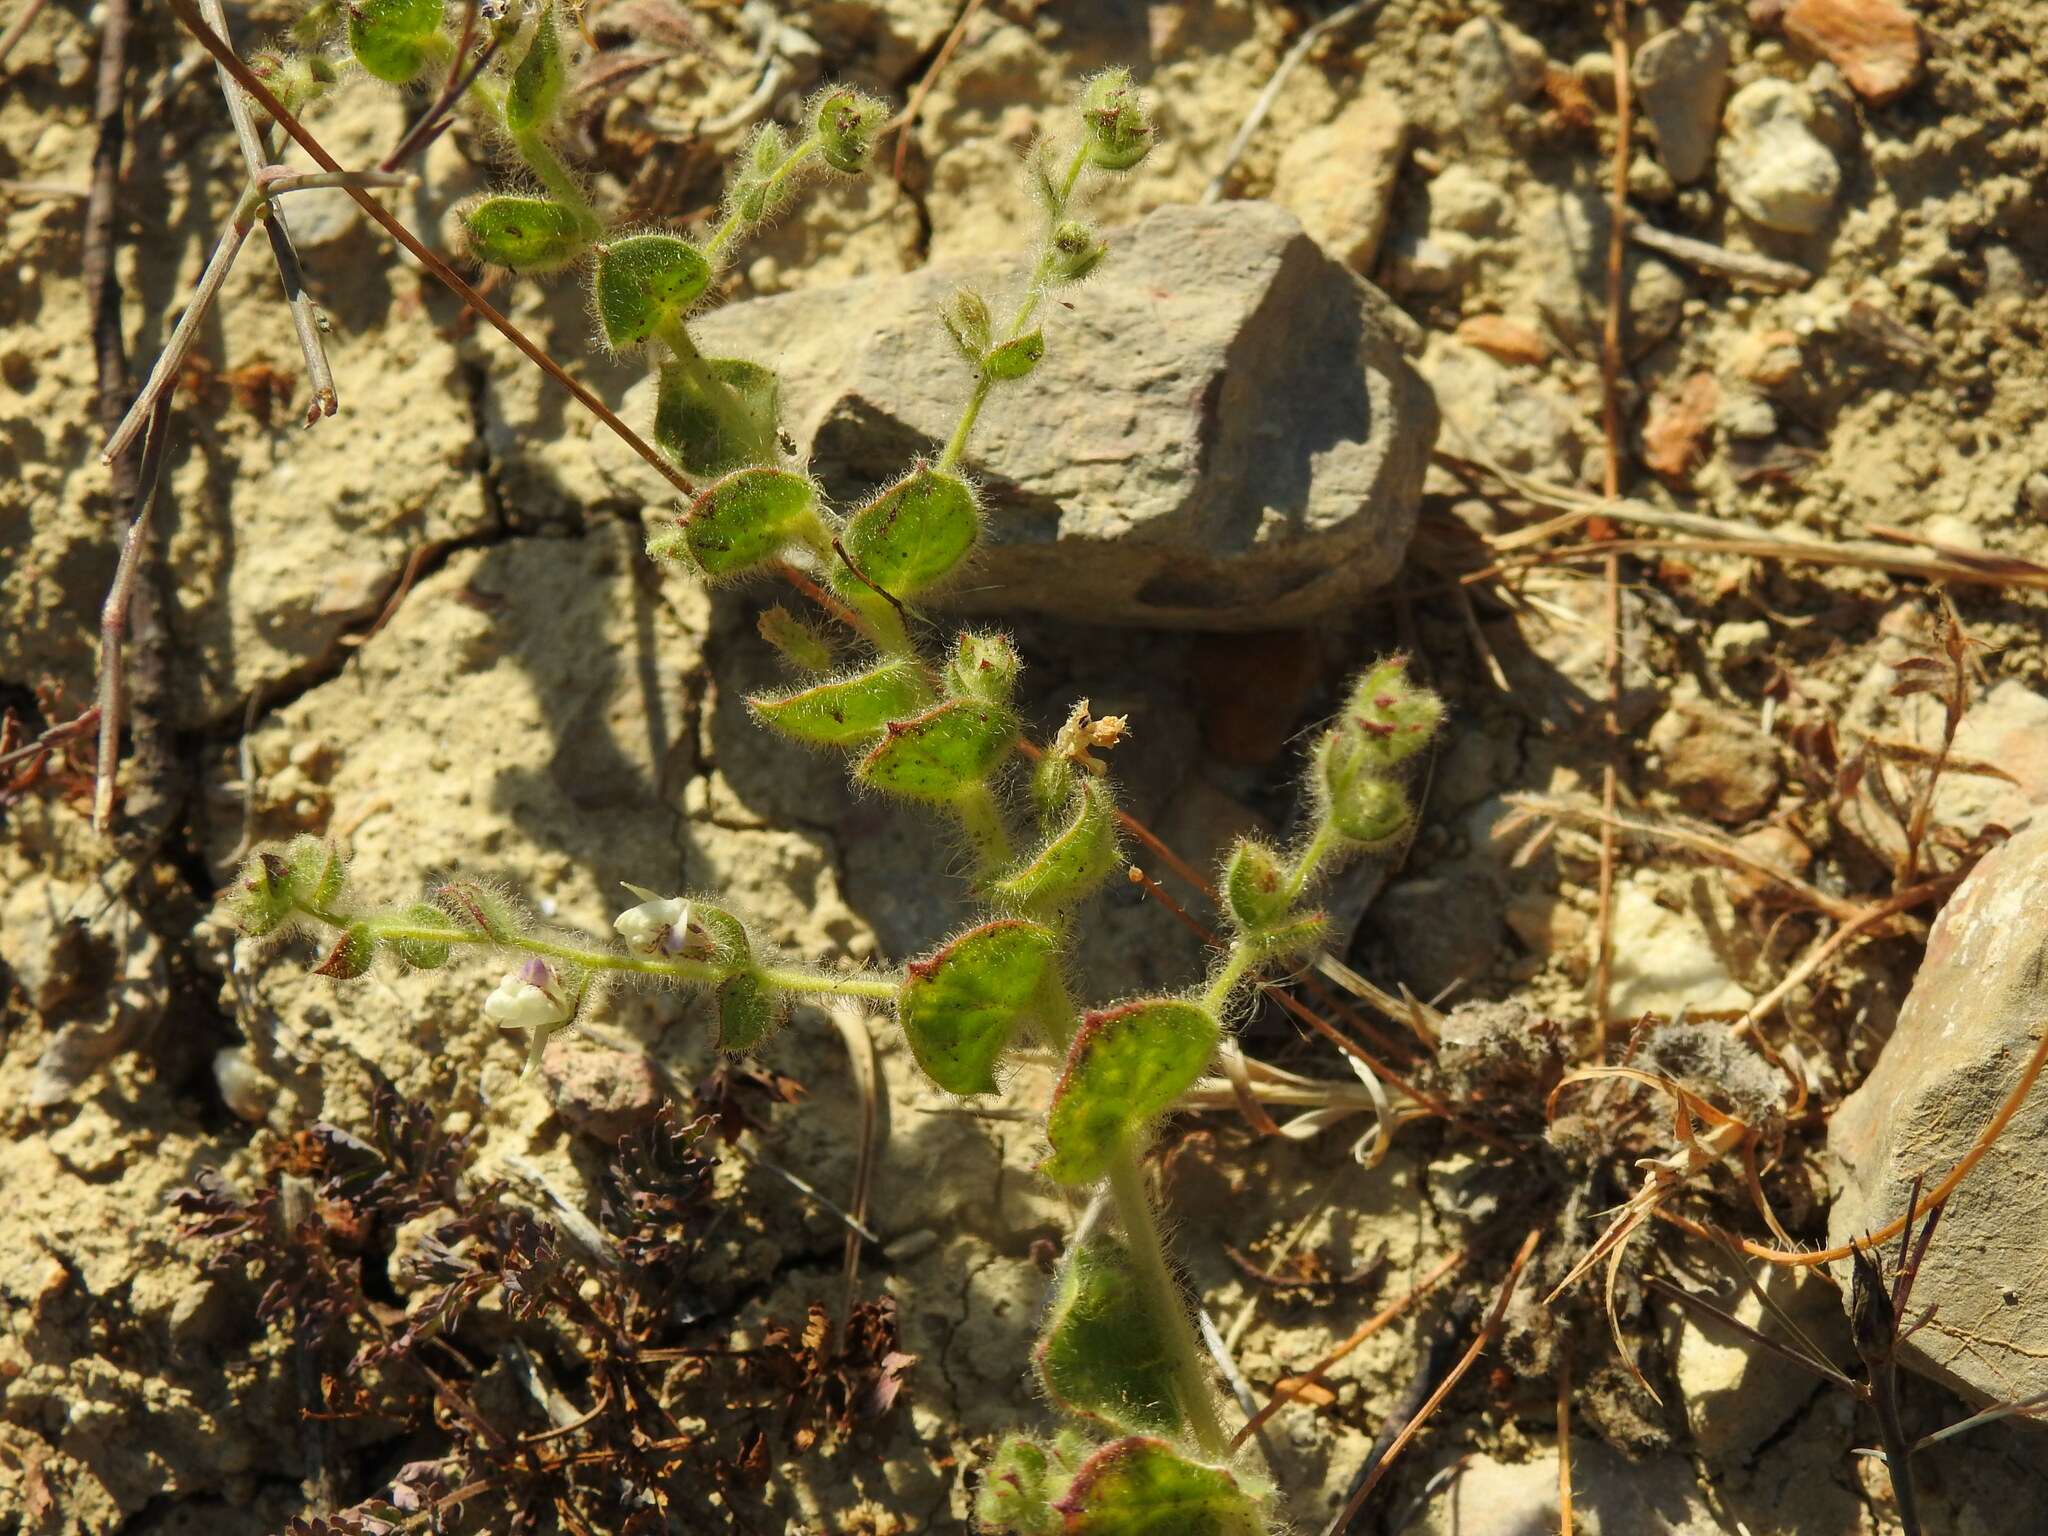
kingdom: Plantae
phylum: Tracheophyta
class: Magnoliopsida
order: Lamiales
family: Plantaginaceae
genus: Kickxia
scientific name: Kickxia lanigera
